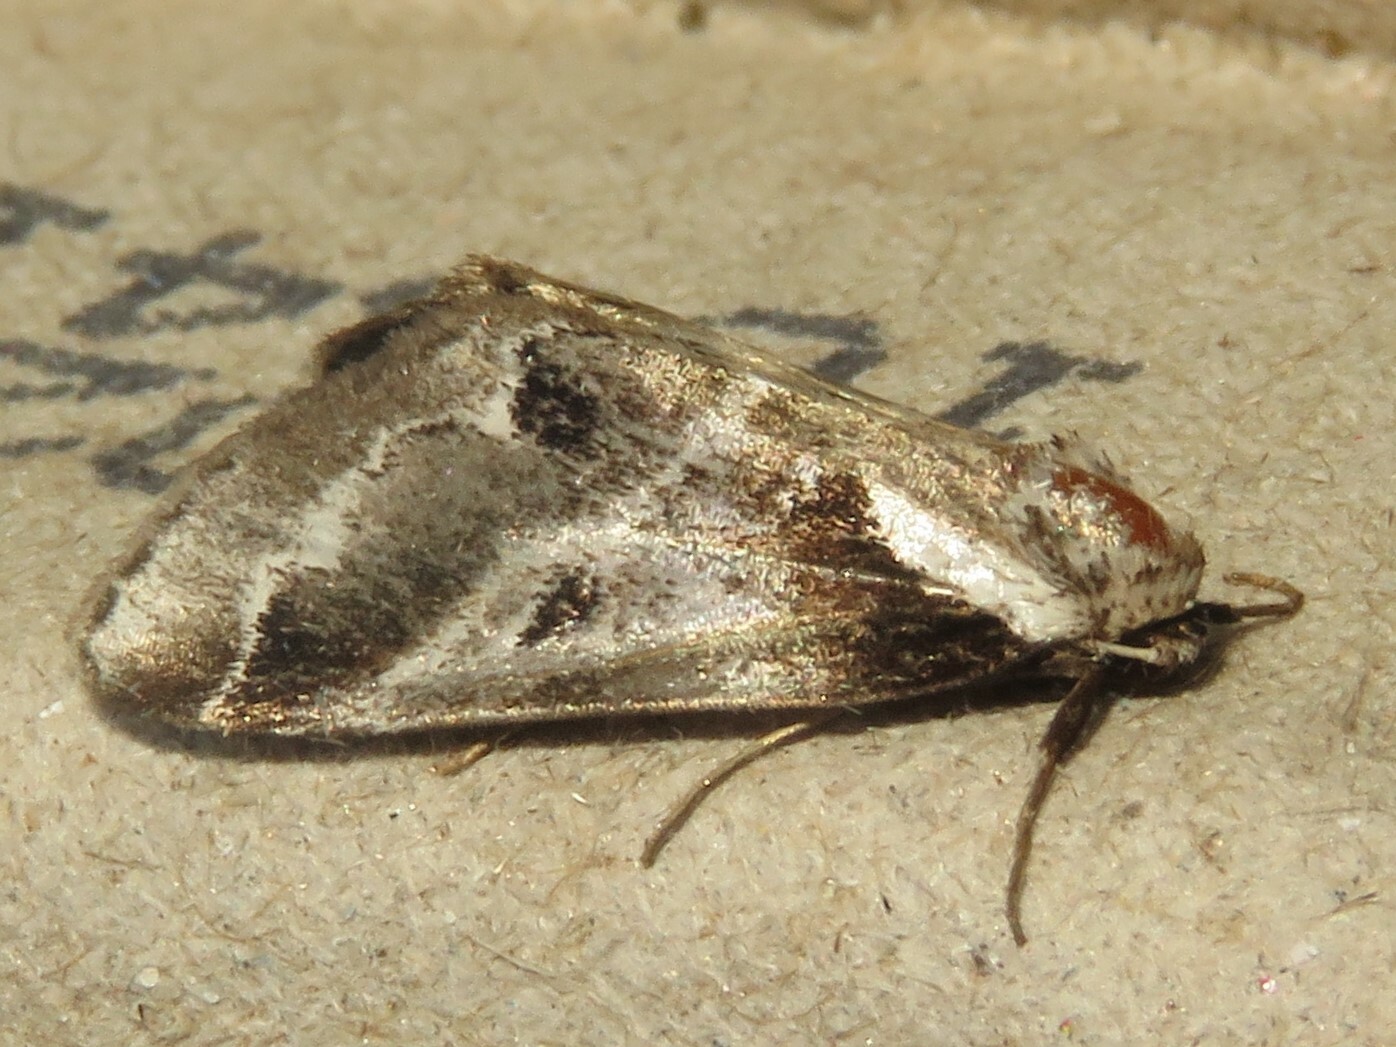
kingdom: Animalia
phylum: Arthropoda
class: Insecta
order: Lepidoptera
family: Nolidae
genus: Baileya
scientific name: Baileya doubledayi
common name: Doubleday's baileya moth
